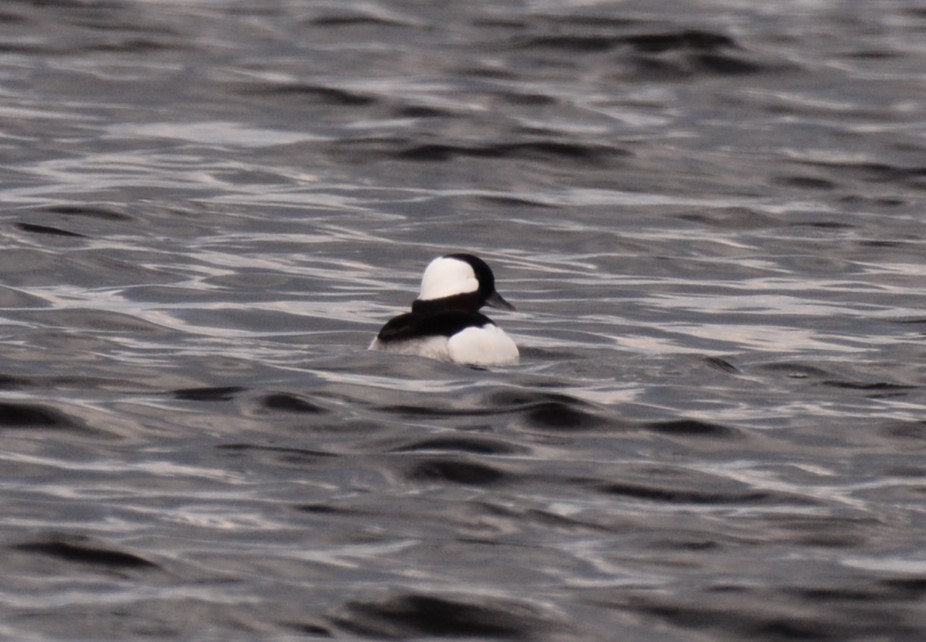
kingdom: Animalia
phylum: Chordata
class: Aves
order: Anseriformes
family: Anatidae
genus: Bucephala
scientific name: Bucephala albeola
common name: Bufflehead
